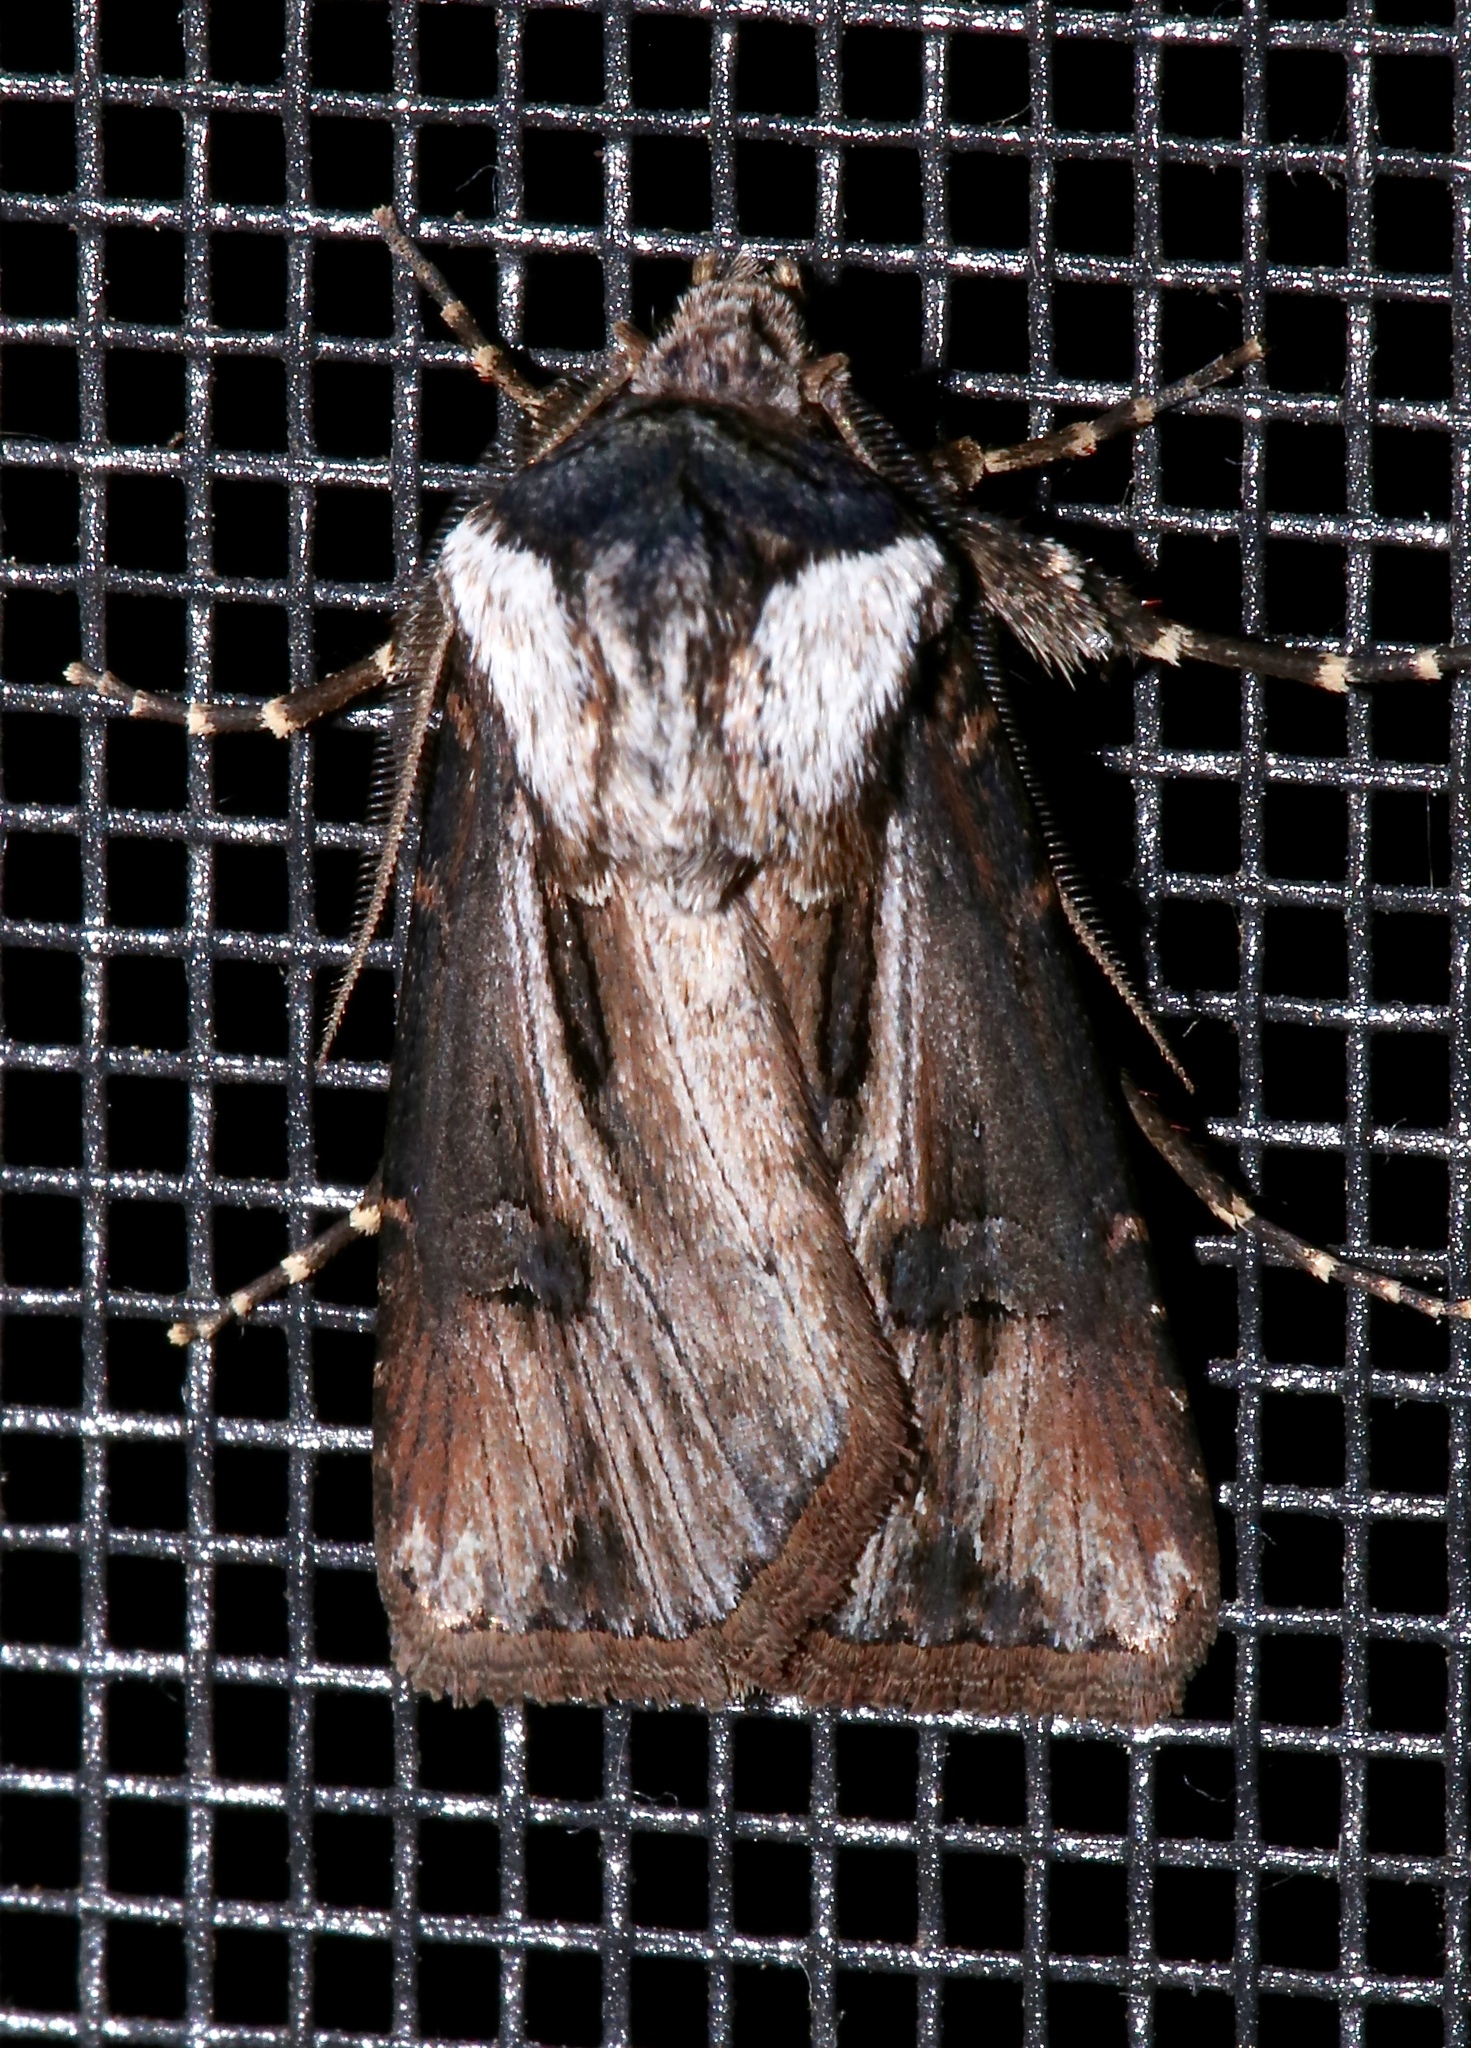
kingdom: Animalia
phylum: Arthropoda
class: Insecta
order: Lepidoptera
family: Noctuidae
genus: Agrotis
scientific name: Agrotis venerabilis
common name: Venerable dart
